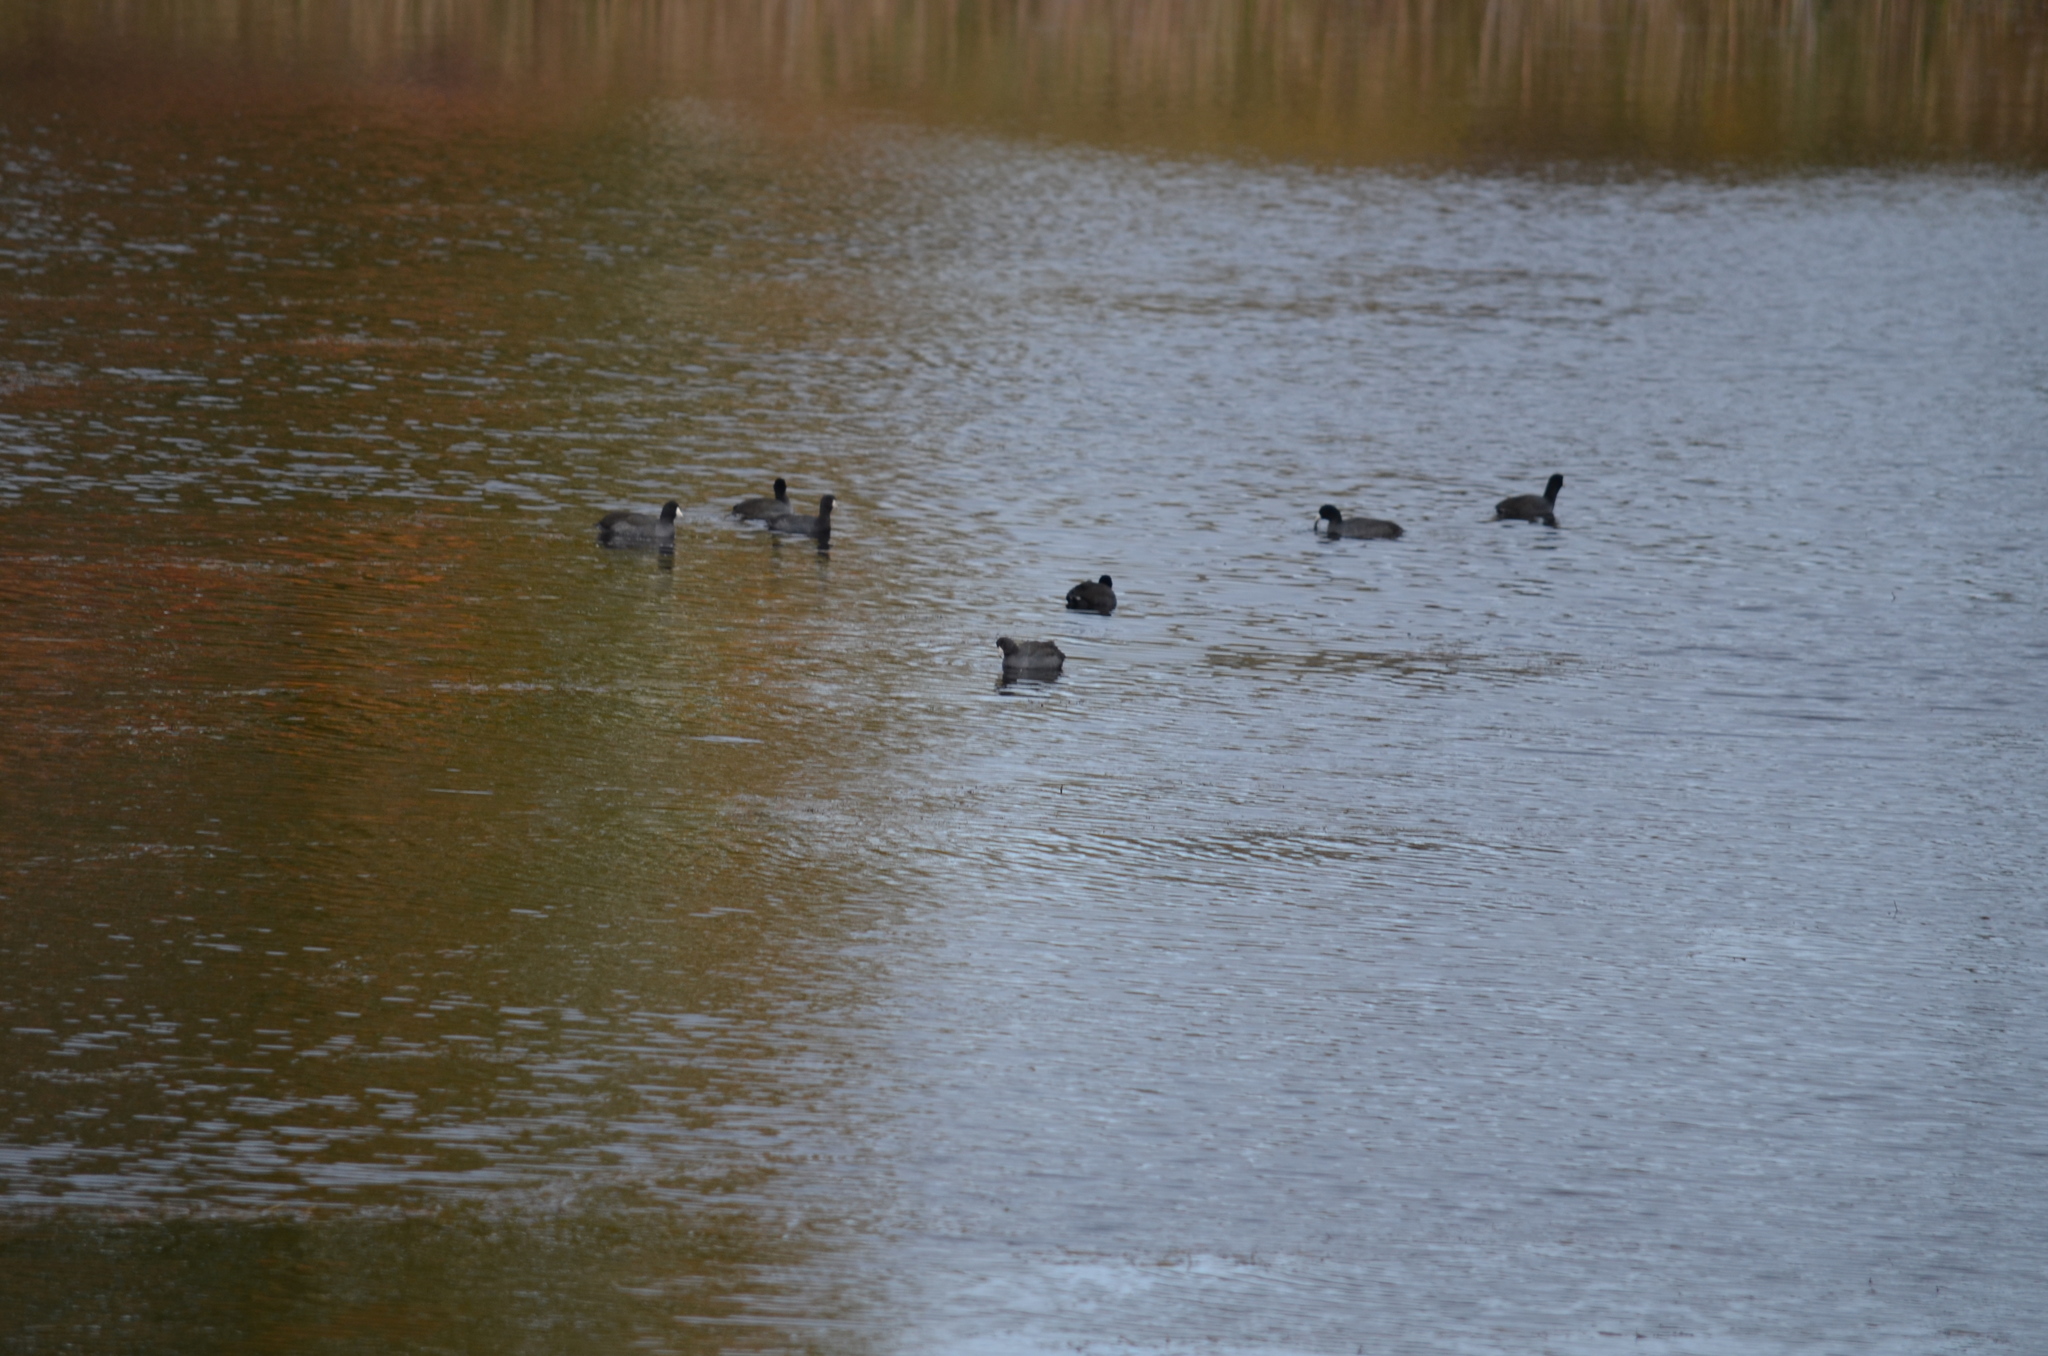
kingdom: Animalia
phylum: Chordata
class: Aves
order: Gruiformes
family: Rallidae
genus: Fulica
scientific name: Fulica americana
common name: American coot
